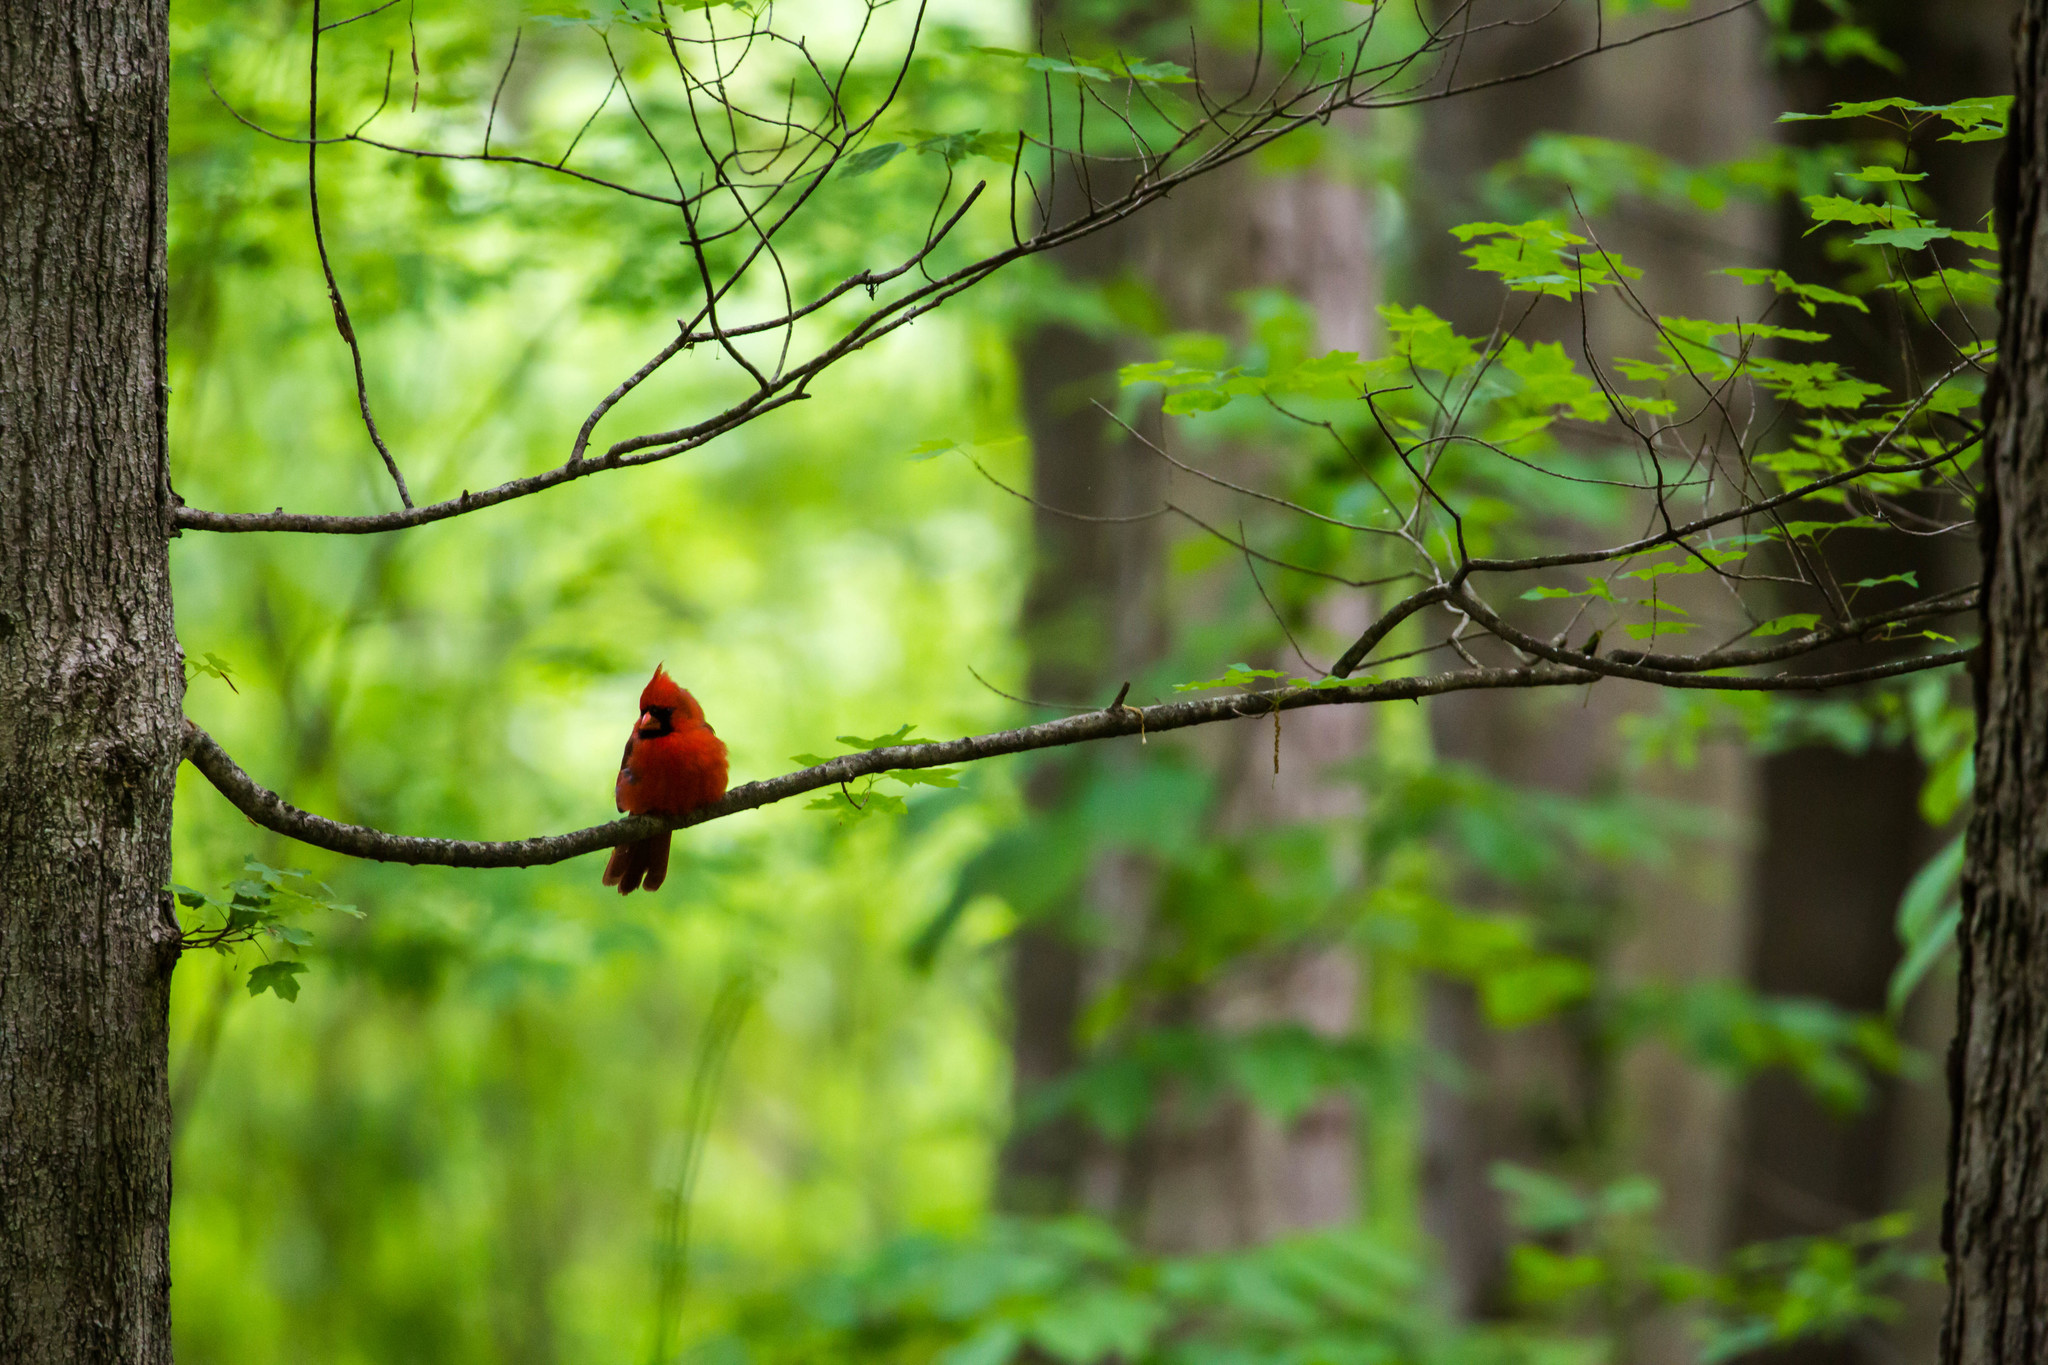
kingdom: Animalia
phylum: Chordata
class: Aves
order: Passeriformes
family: Cardinalidae
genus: Cardinalis
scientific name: Cardinalis cardinalis
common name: Northern cardinal
